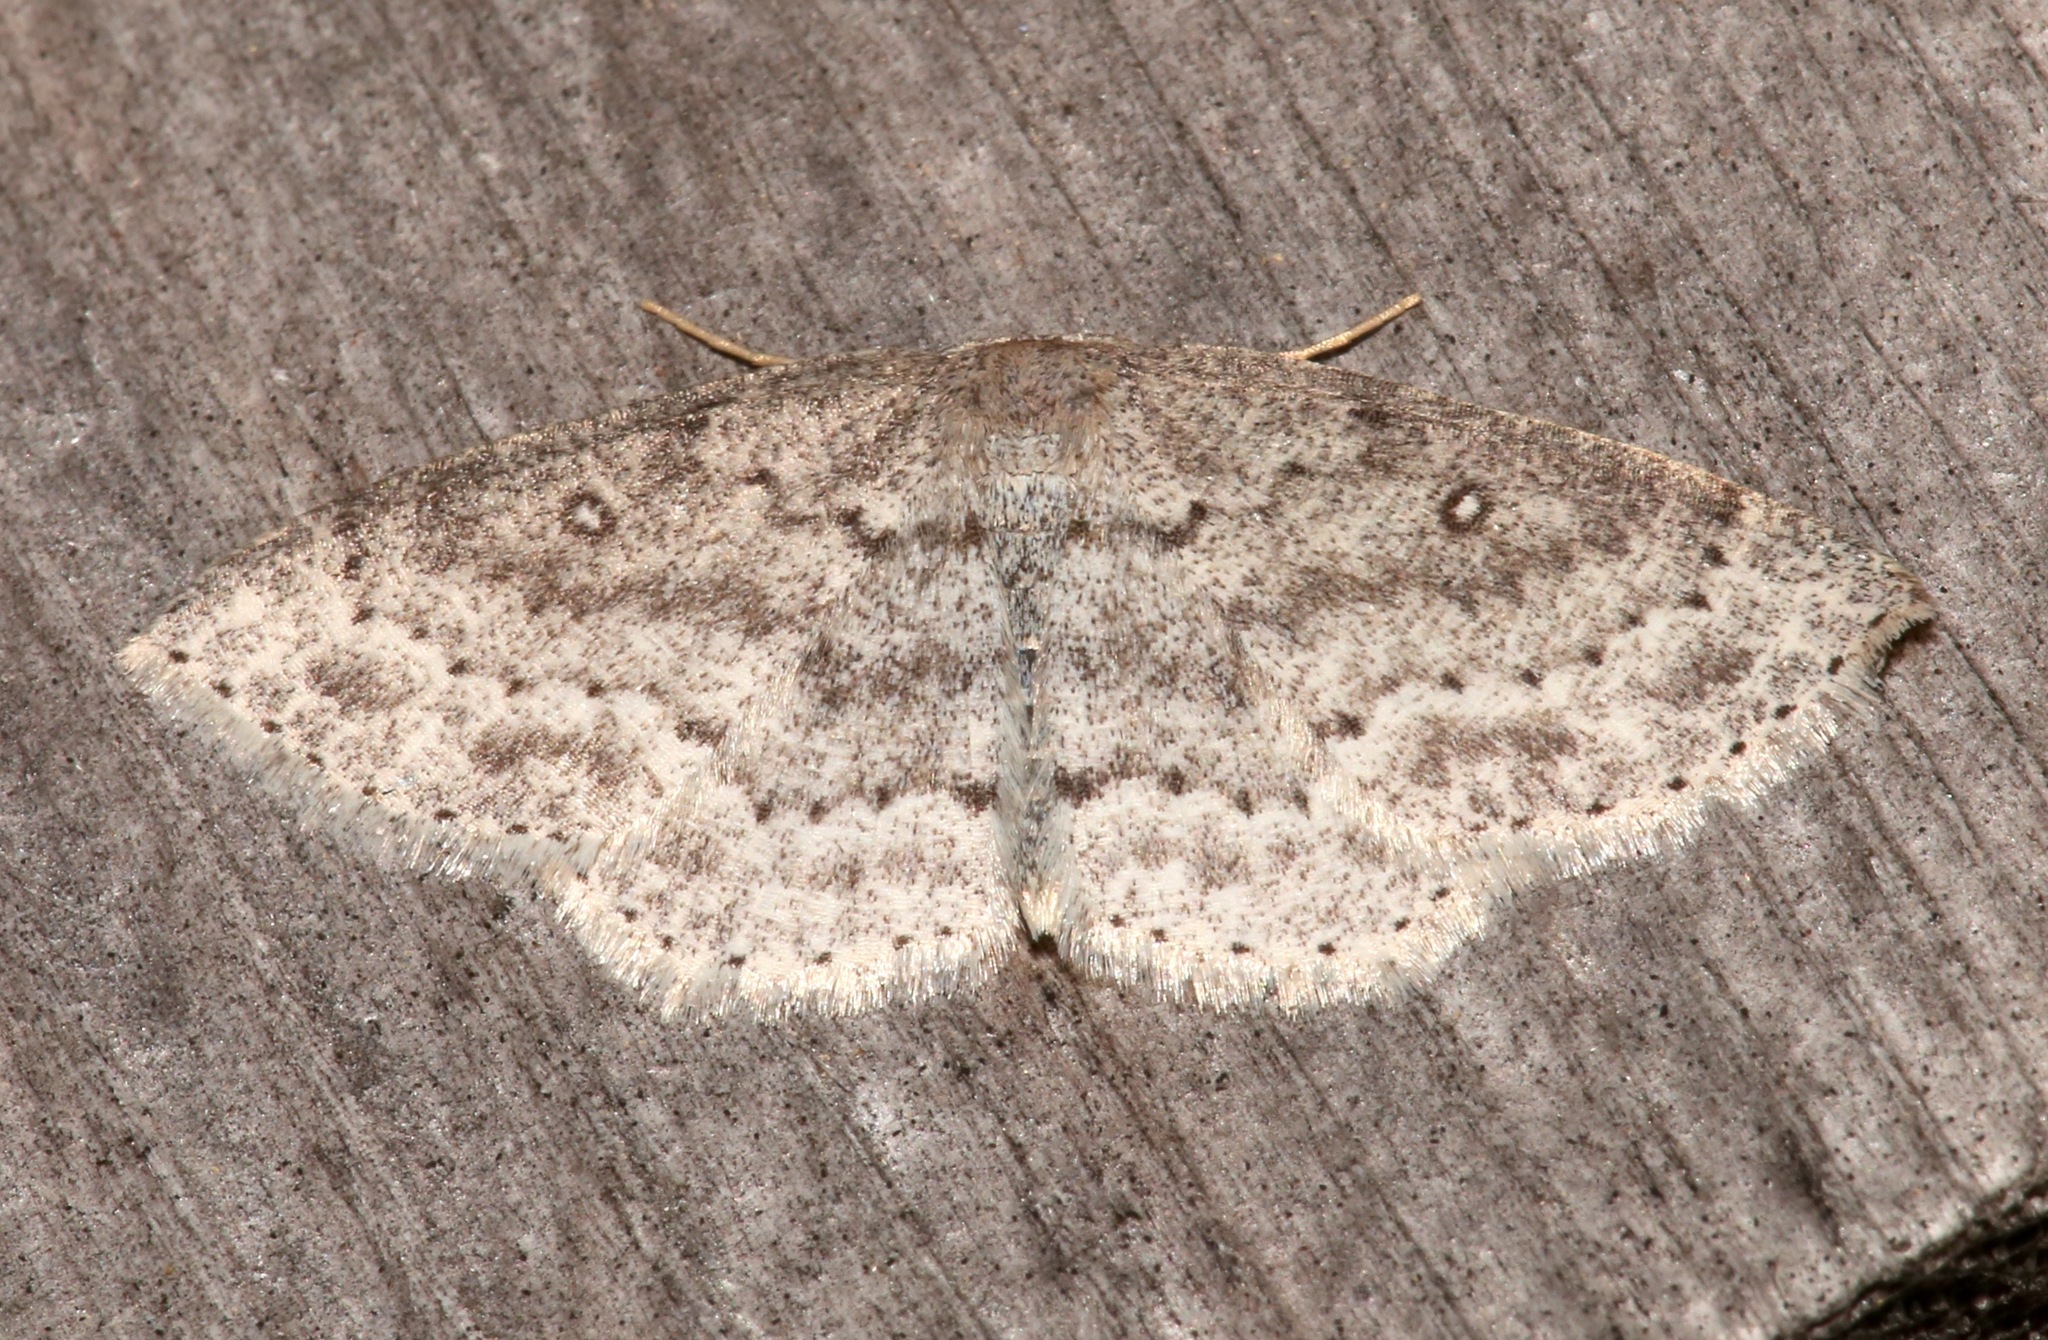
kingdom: Animalia
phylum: Arthropoda
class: Insecta
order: Lepidoptera
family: Geometridae
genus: Cyclophora
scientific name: Cyclophora pendulinaria
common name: Sweet fern geometer
